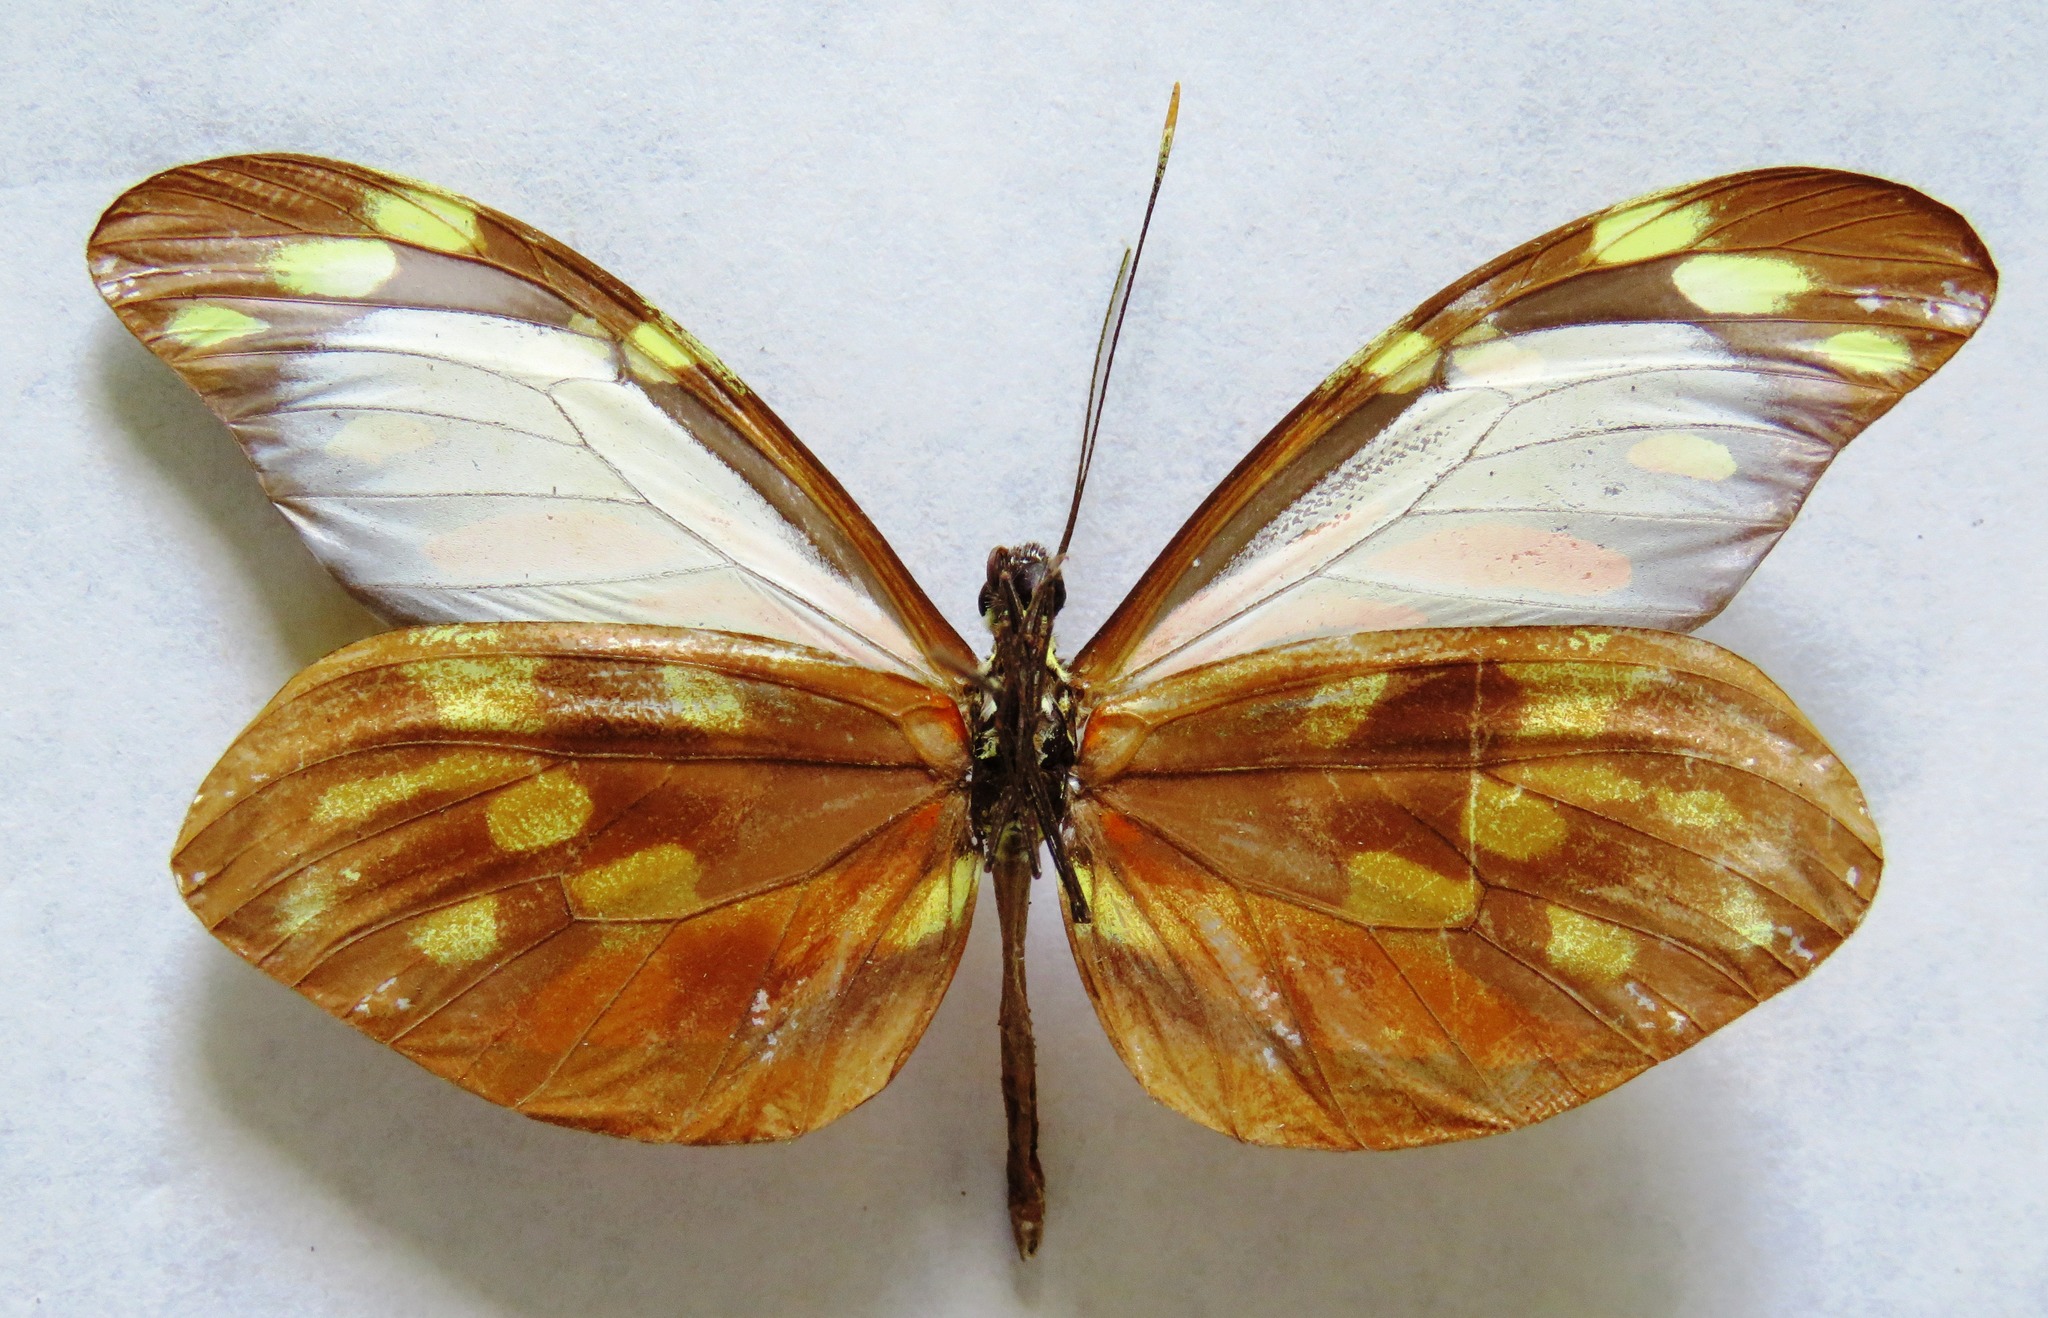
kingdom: Animalia
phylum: Arthropoda
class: Insecta
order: Lepidoptera
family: Pieridae
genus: Dismorphia
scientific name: Dismorphia amphione
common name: Tiger mimic-white
